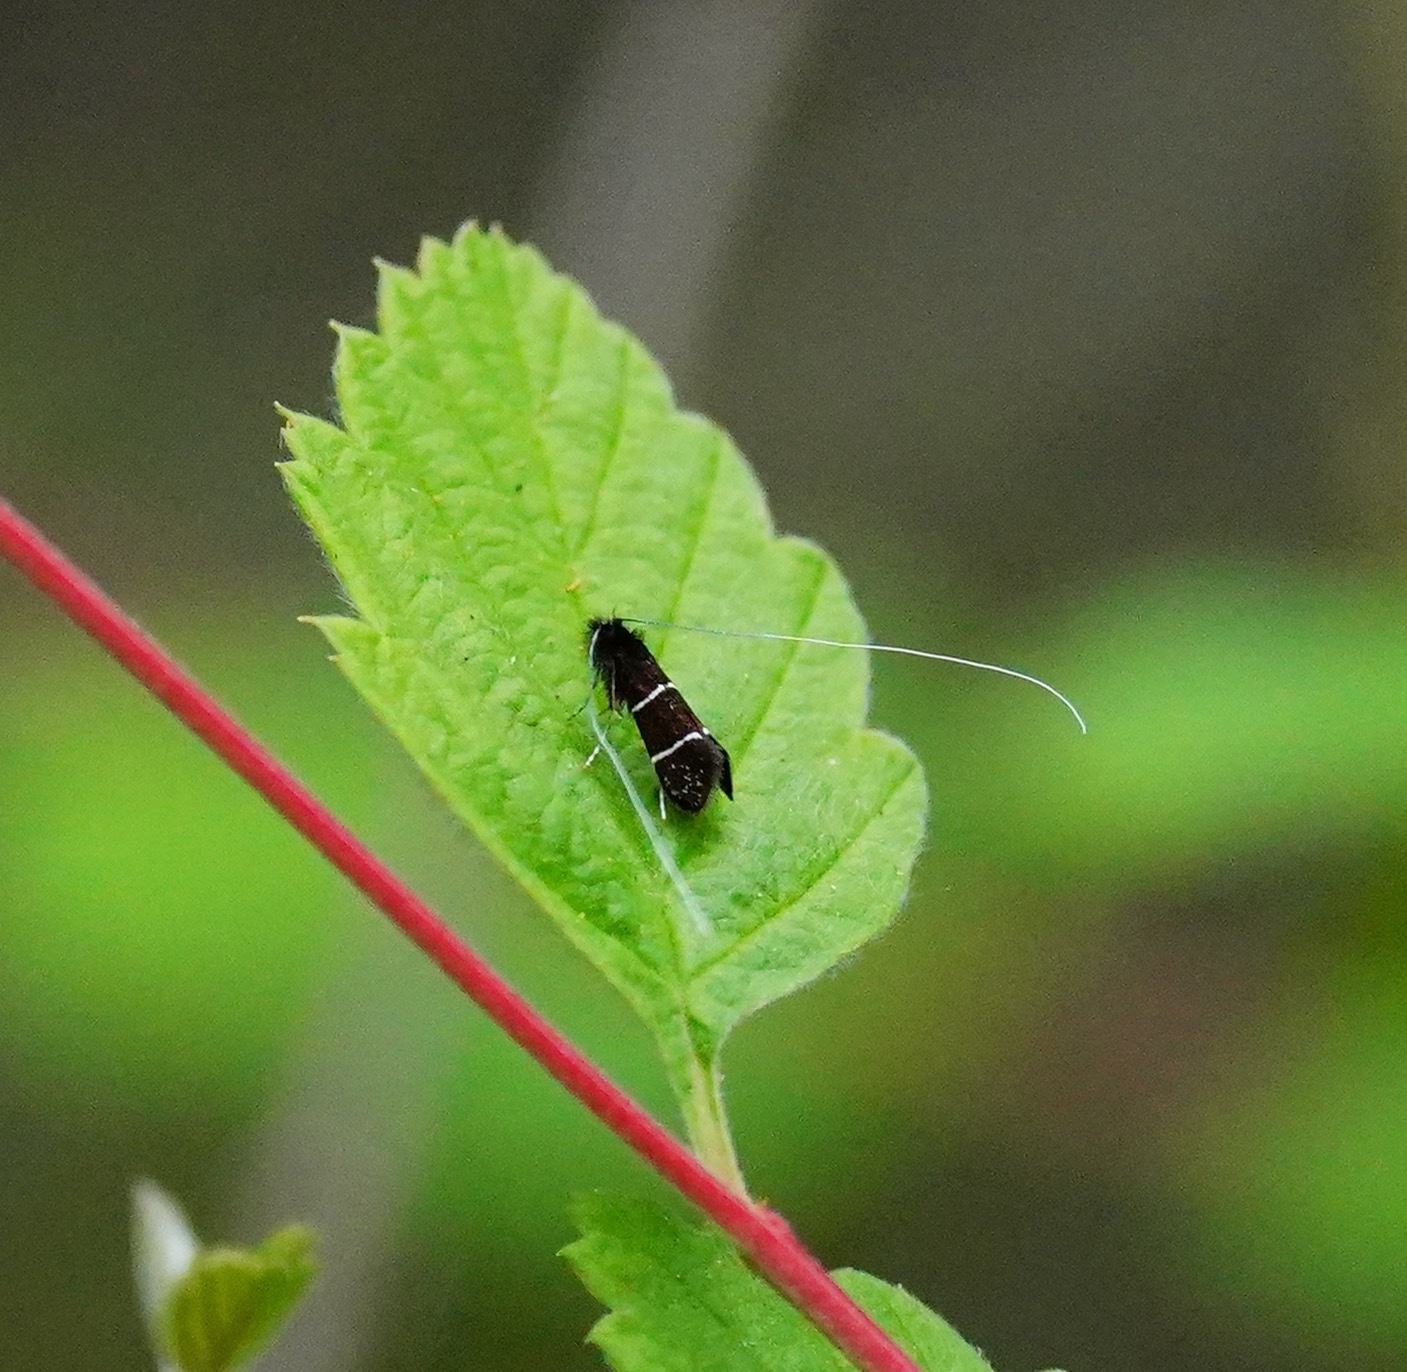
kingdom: Animalia
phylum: Arthropoda
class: Insecta
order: Lepidoptera
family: Adelidae
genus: Adela
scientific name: Adela septentrionella
